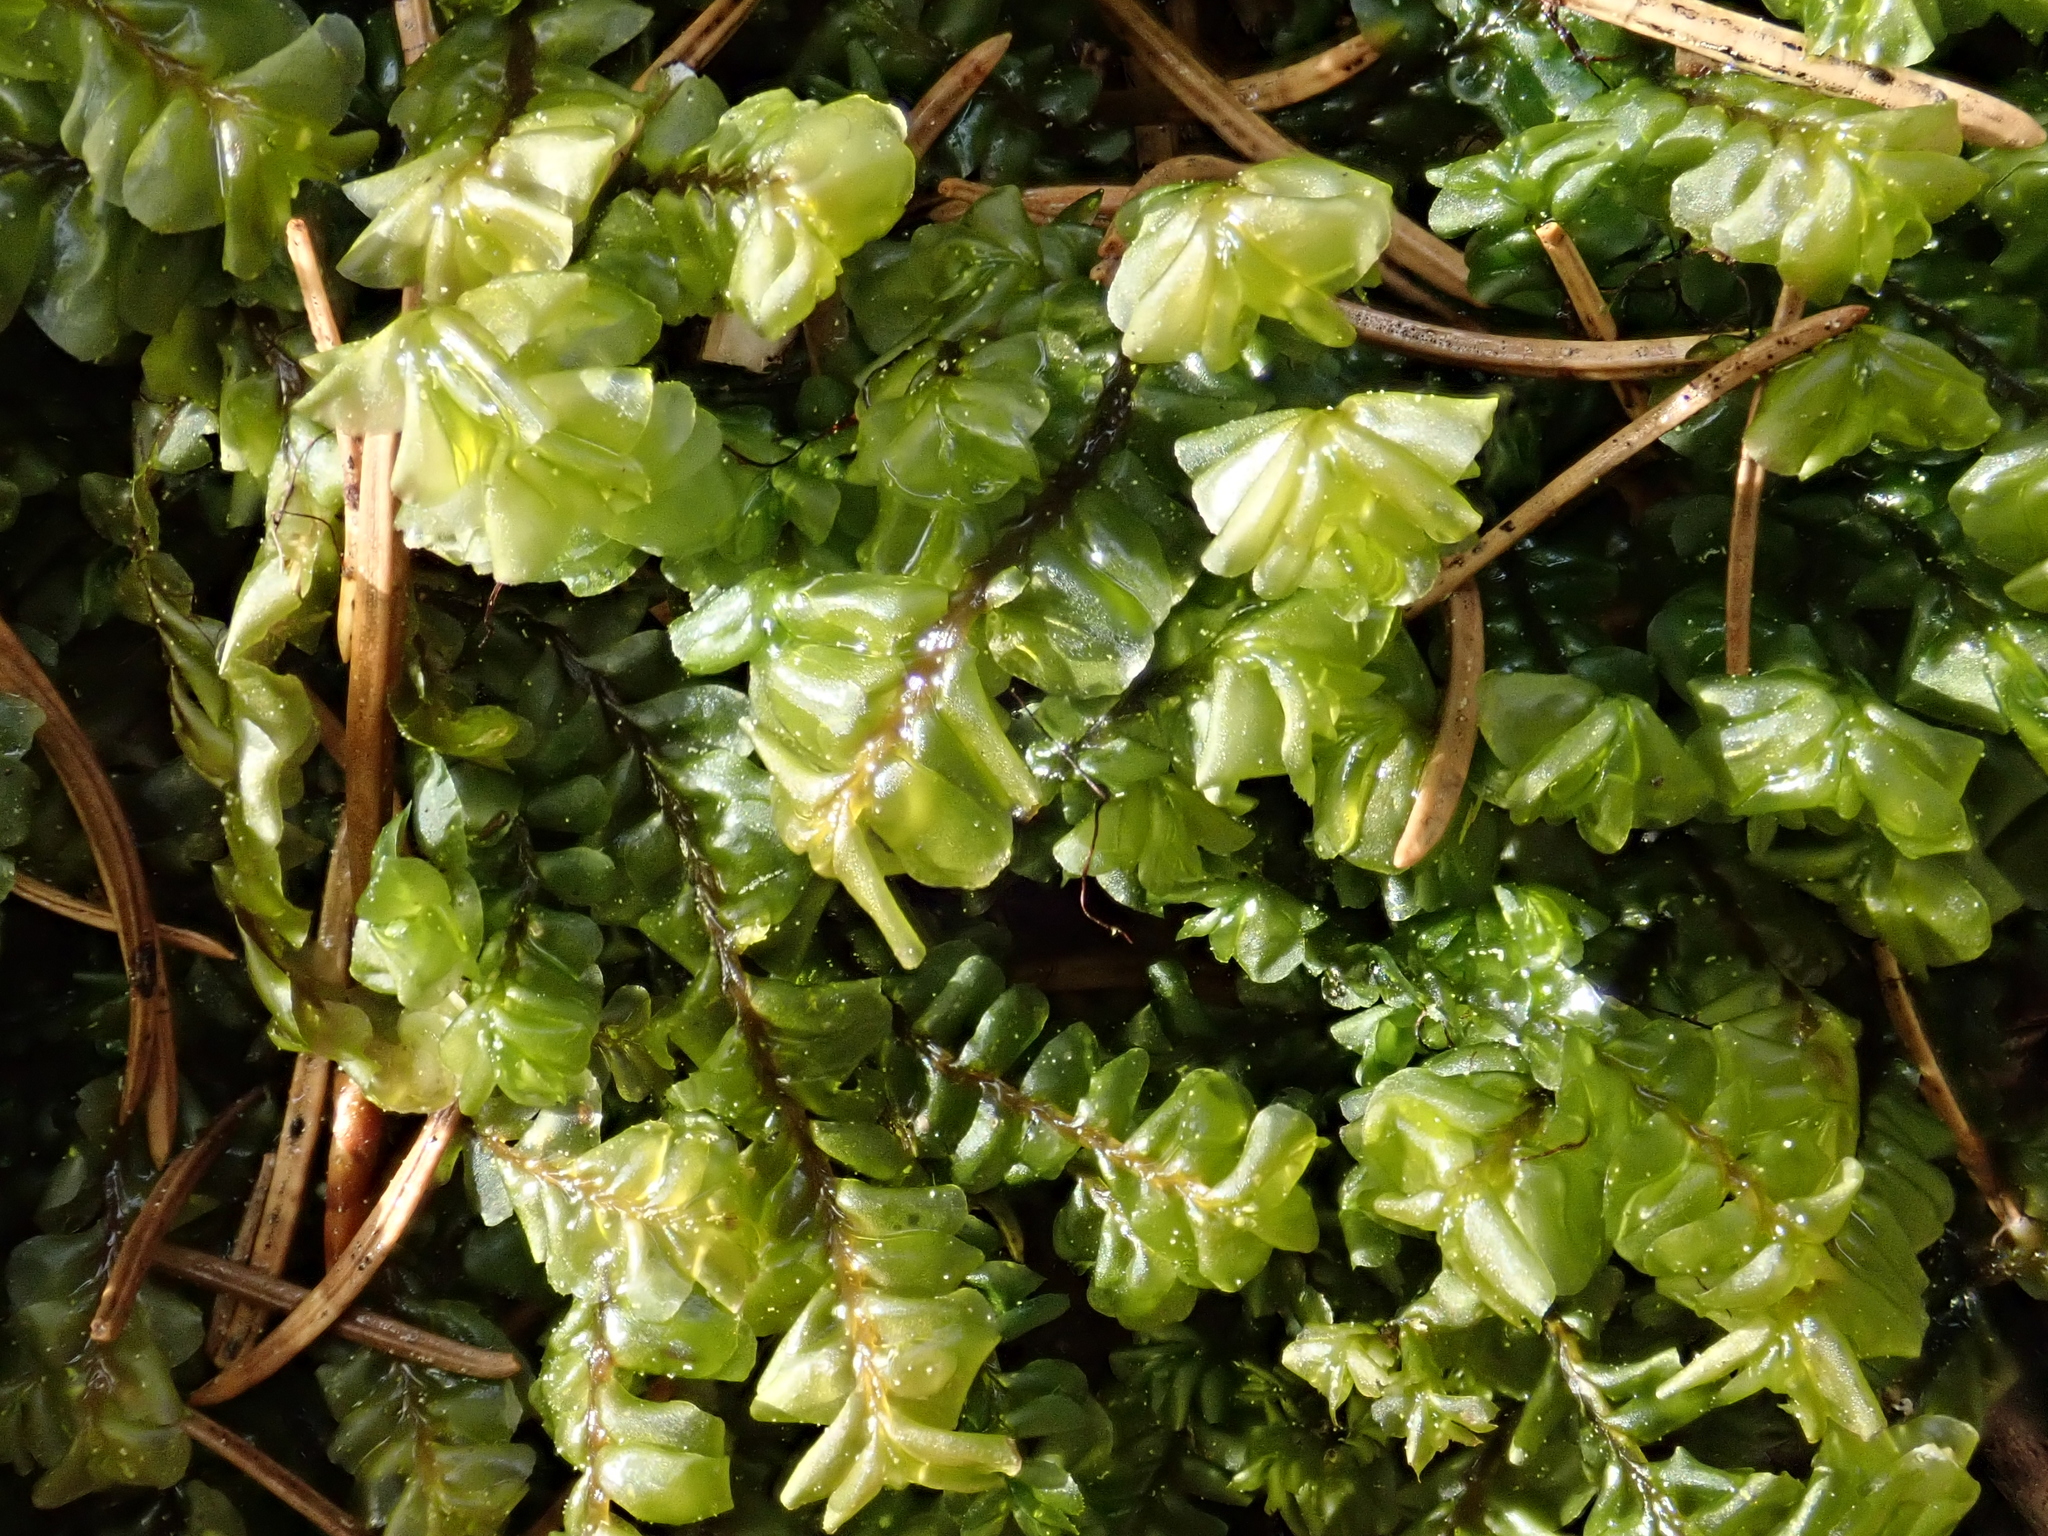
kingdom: Plantae
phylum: Marchantiophyta
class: Jungermanniopsida
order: Jungermanniales
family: Plagiochilaceae
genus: Plagiochila
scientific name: Plagiochila asplenioides
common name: Greater featherwort
